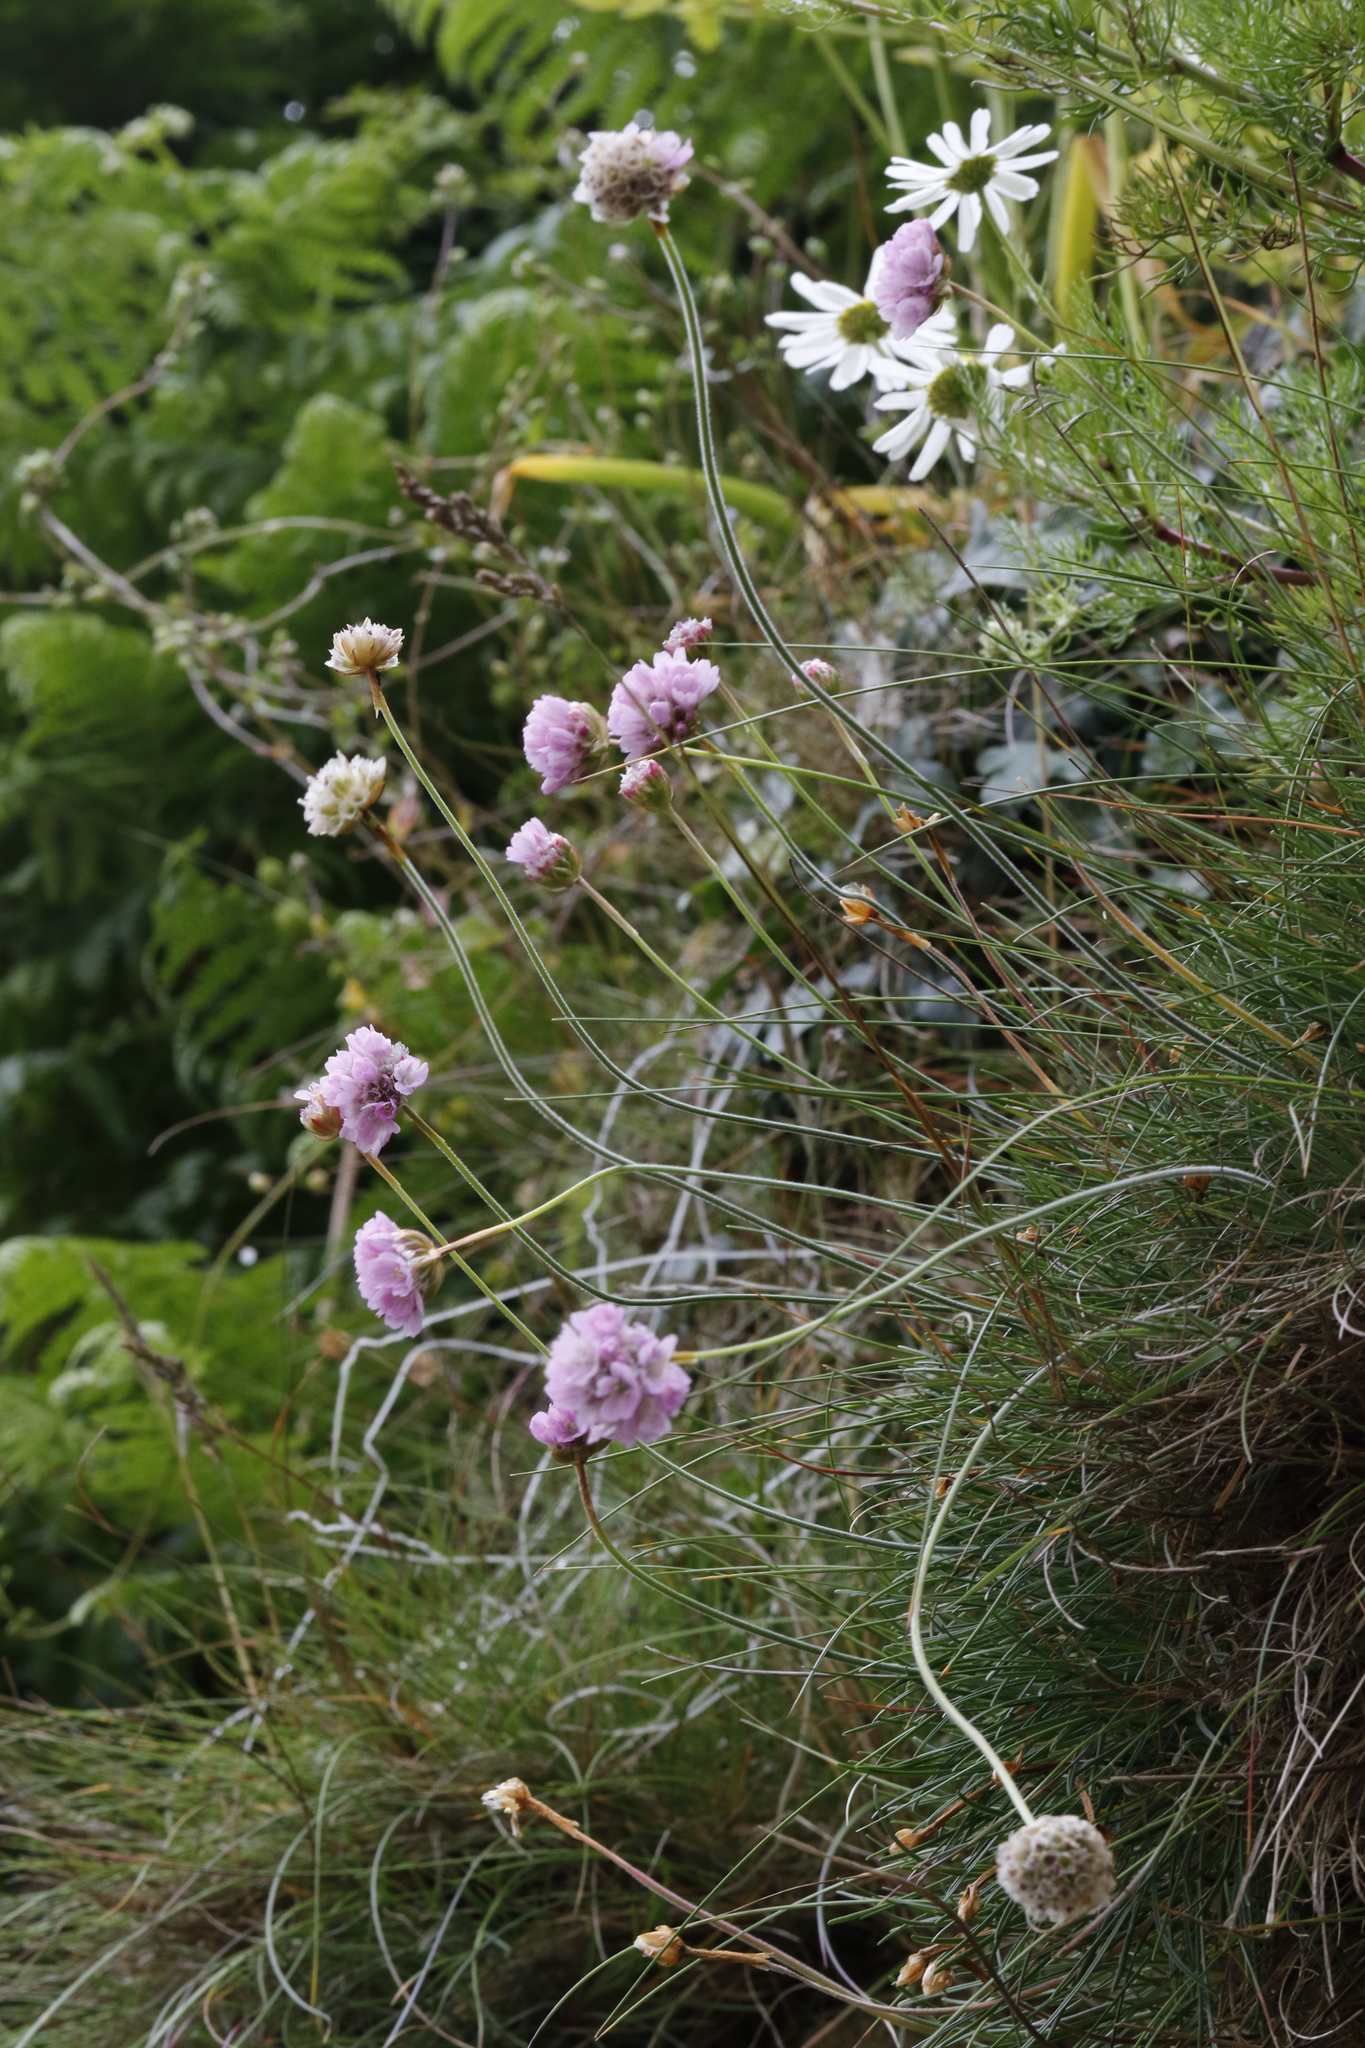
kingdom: Plantae
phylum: Tracheophyta
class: Magnoliopsida
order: Caryophyllales
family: Plumbaginaceae
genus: Armeria
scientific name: Armeria maritima
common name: Thrift
